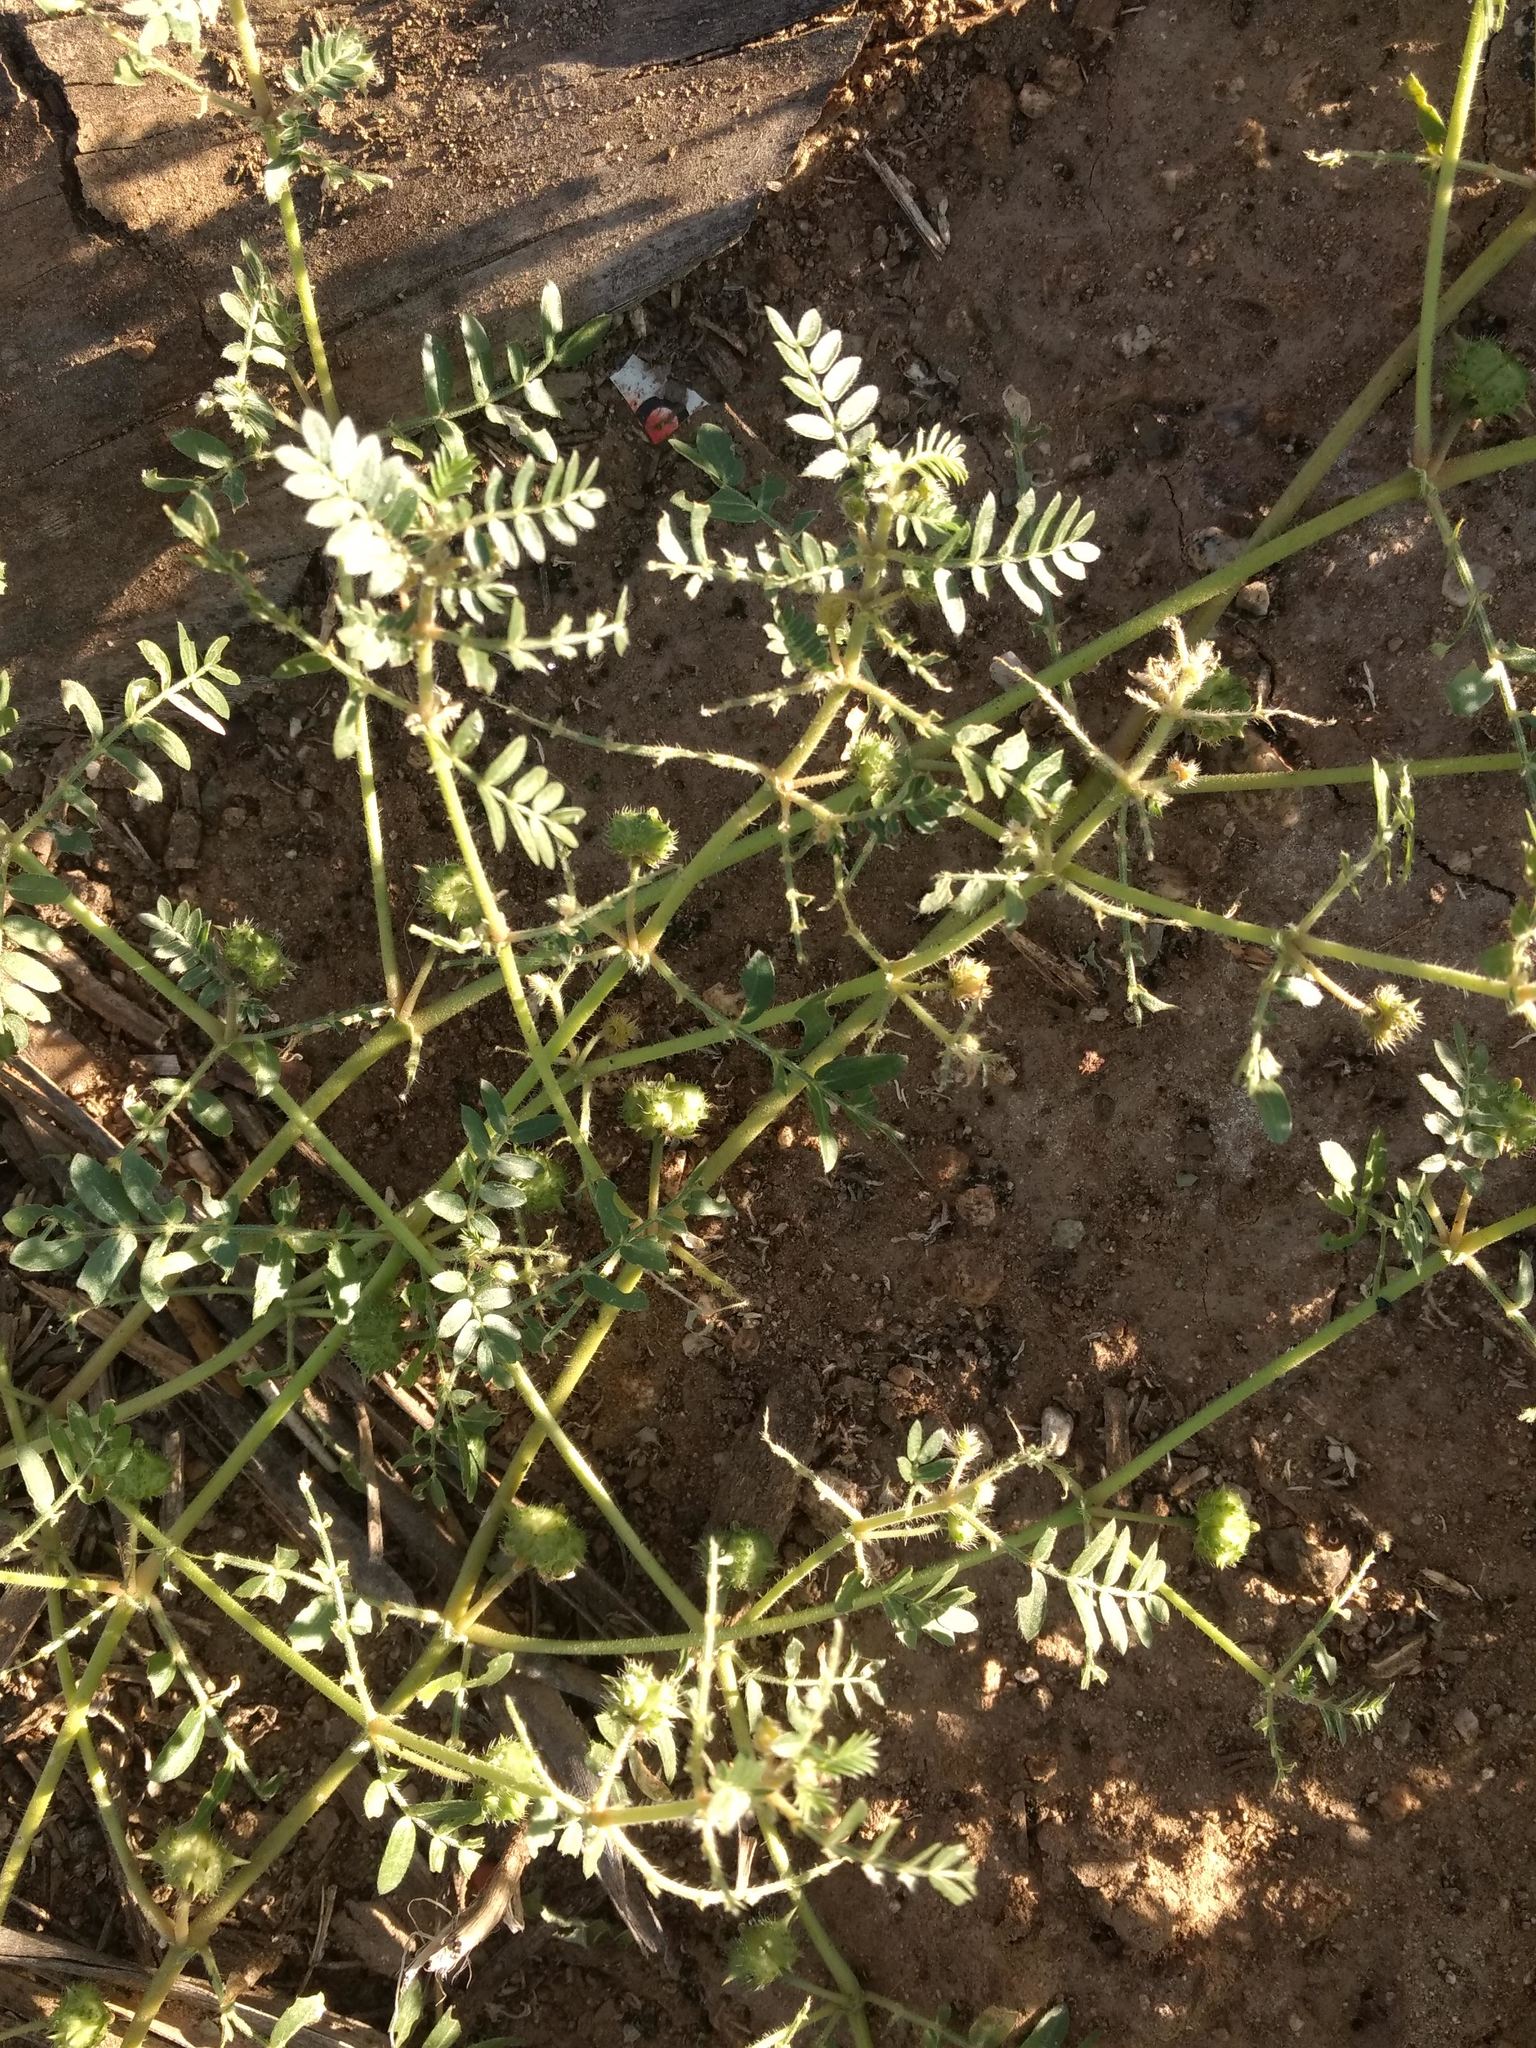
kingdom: Plantae
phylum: Tracheophyta
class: Magnoliopsida
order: Zygophyllales
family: Zygophyllaceae
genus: Tribulus
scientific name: Tribulus terrestris
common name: Puncturevine
